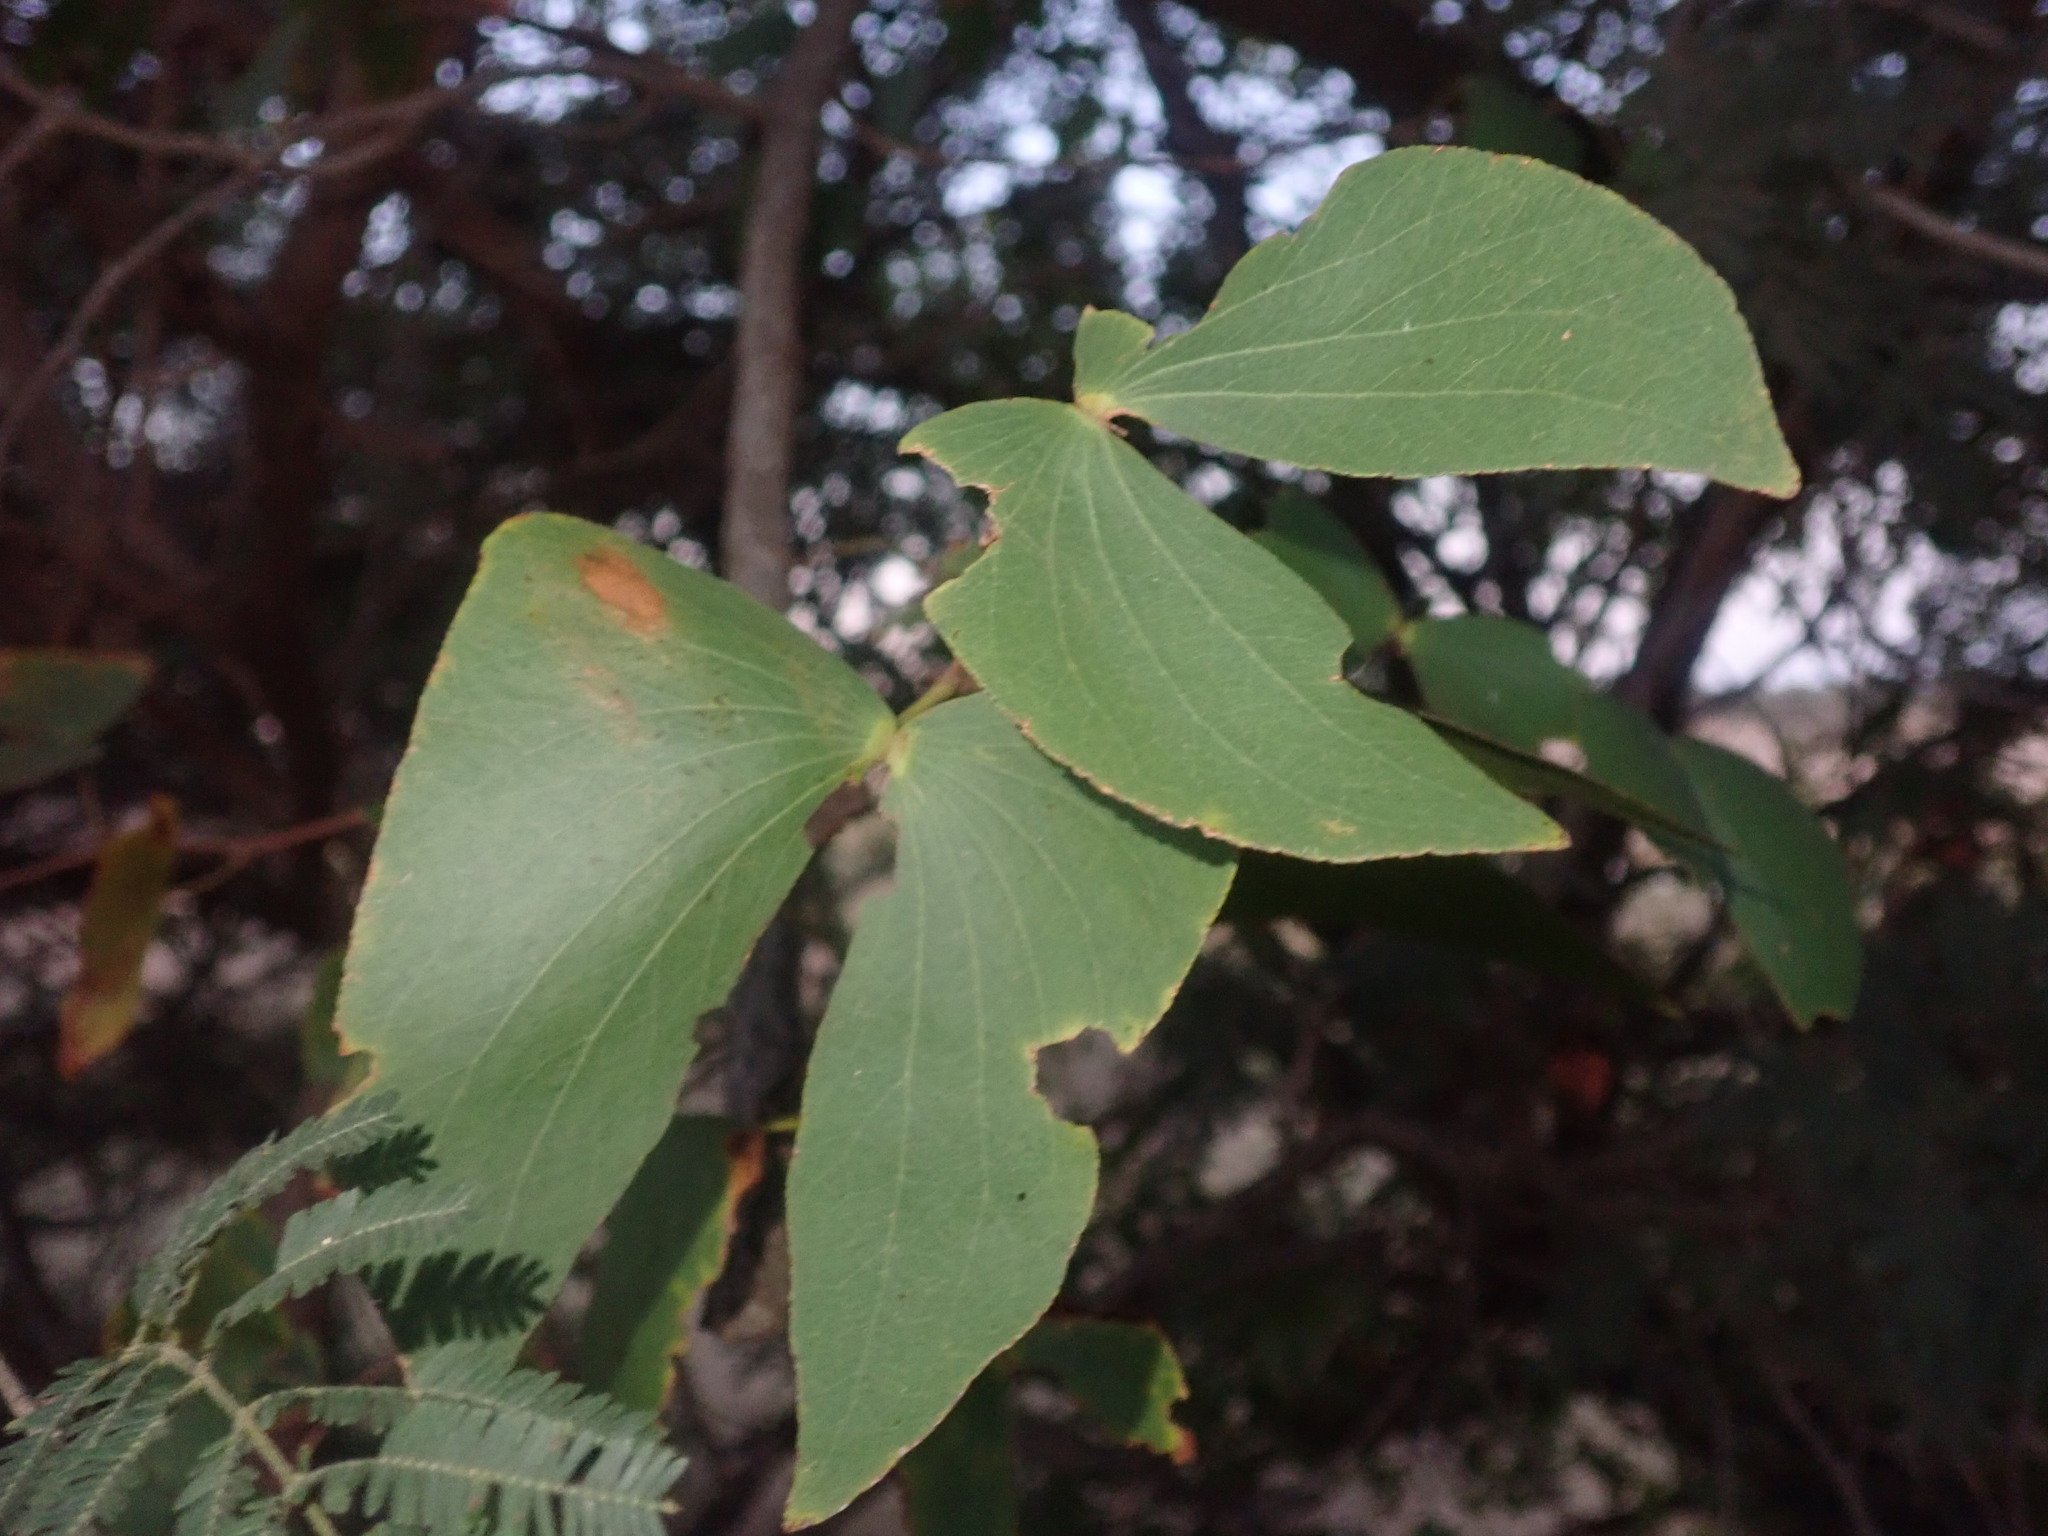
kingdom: Plantae
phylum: Tracheophyta
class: Magnoliopsida
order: Fabales
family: Fabaceae
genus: Colophospermum
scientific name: Colophospermum mopane
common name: Mopane
